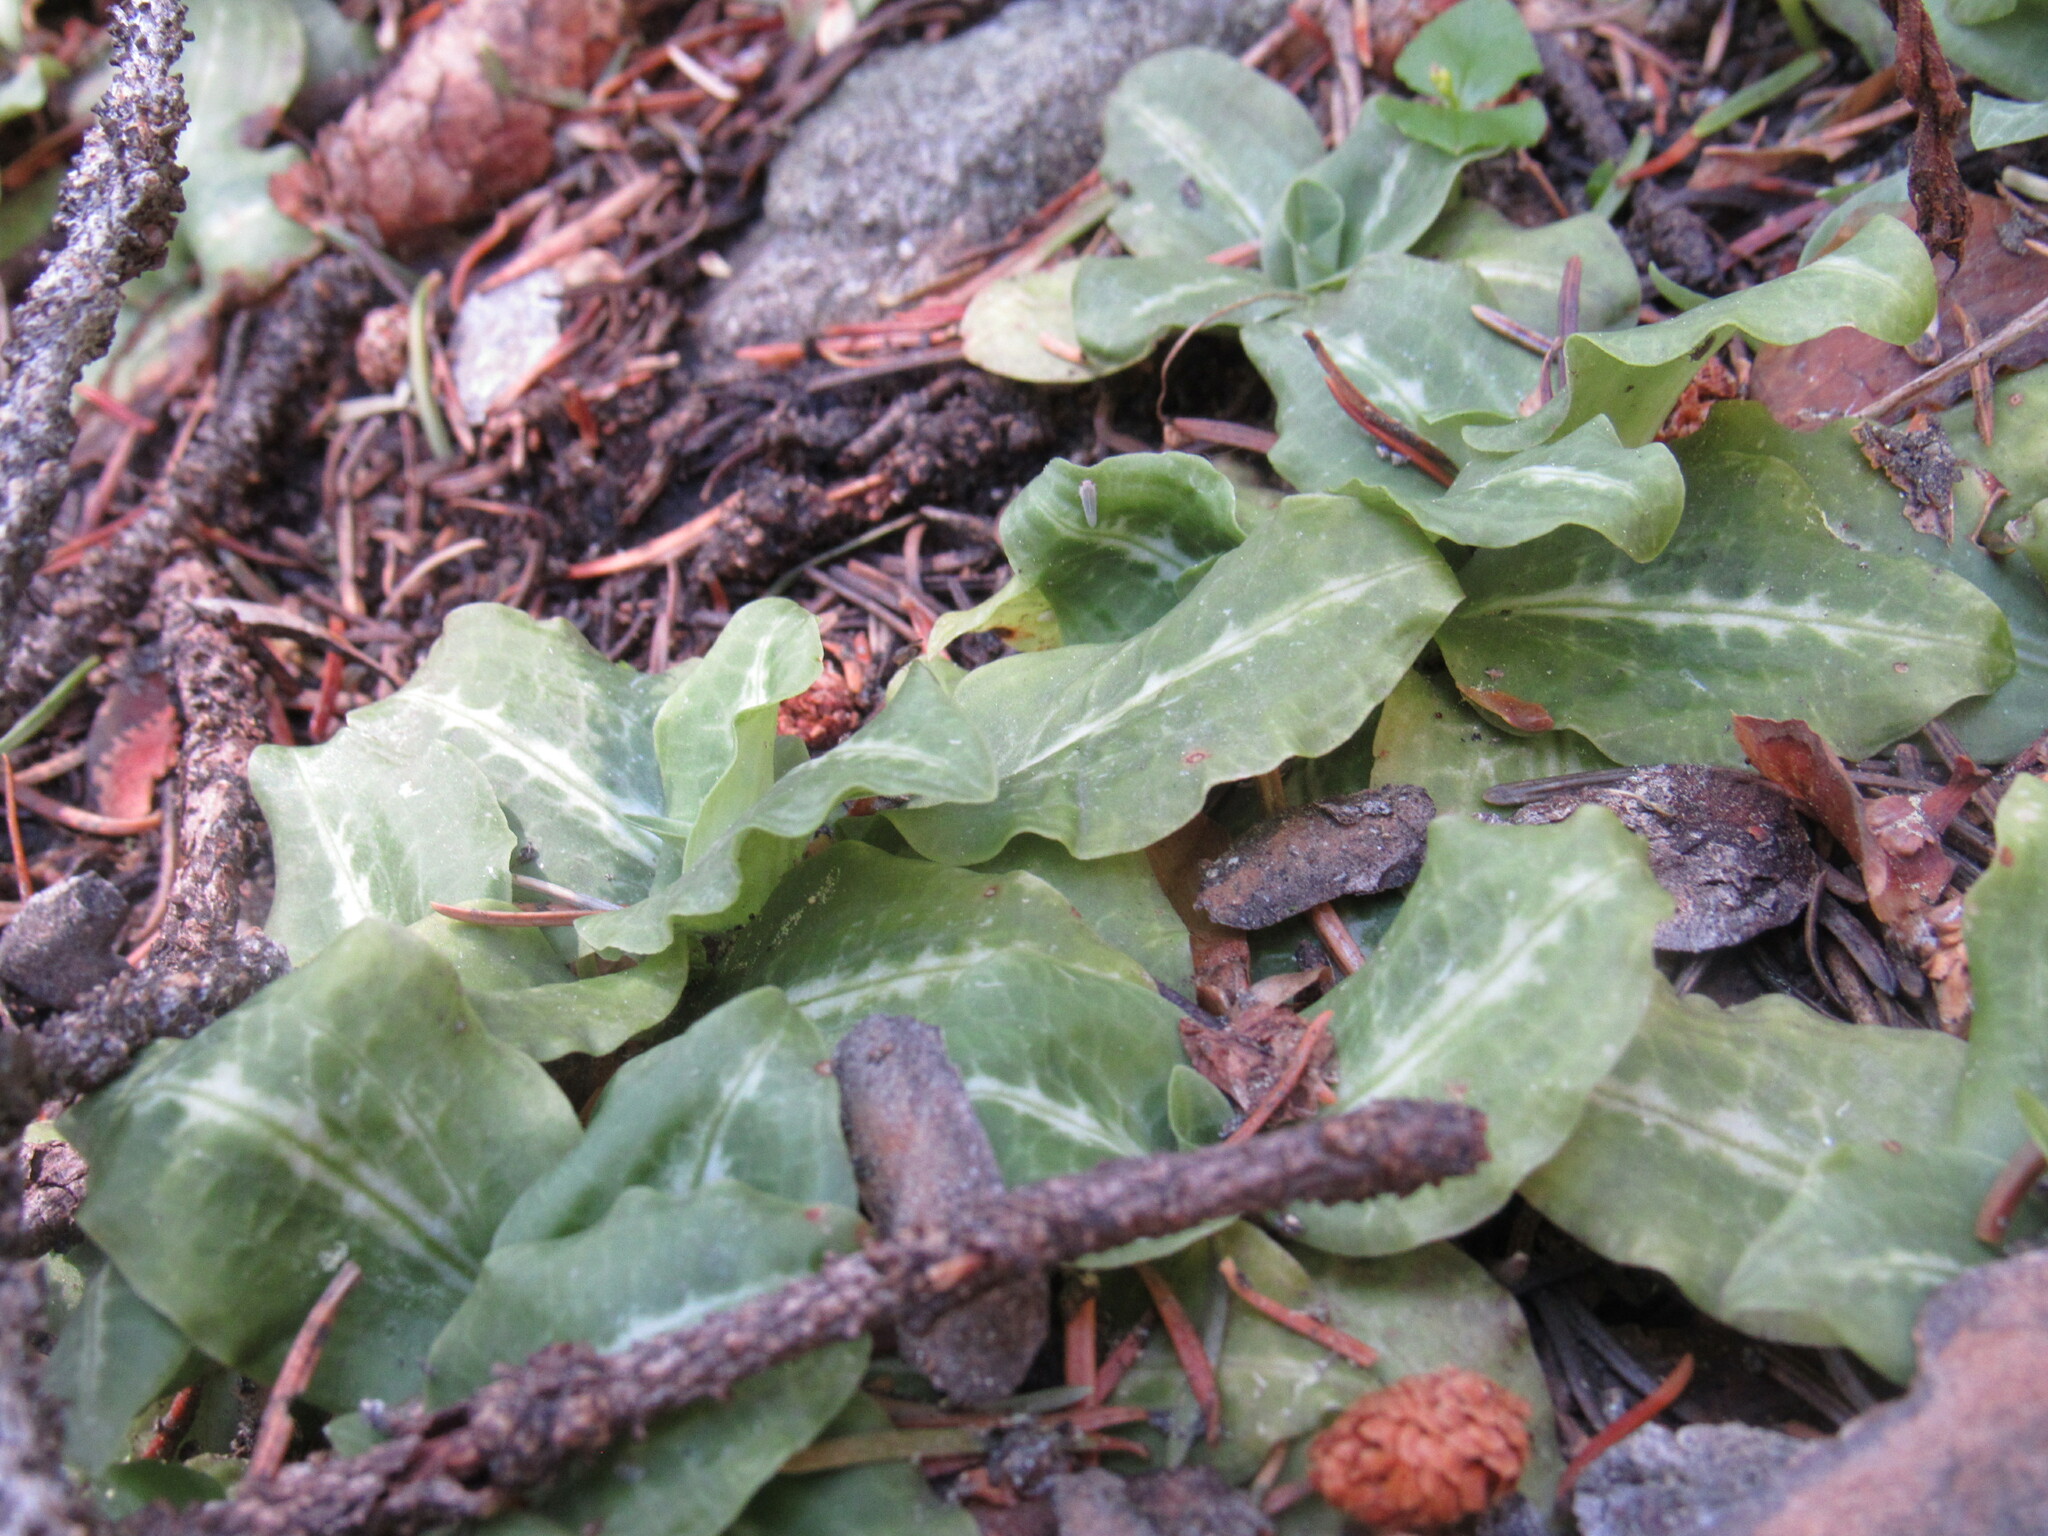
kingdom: Plantae
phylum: Tracheophyta
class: Liliopsida
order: Asparagales
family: Orchidaceae
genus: Goodyera
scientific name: Goodyera oblongifolia
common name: Giant rattlesnake-plantain
